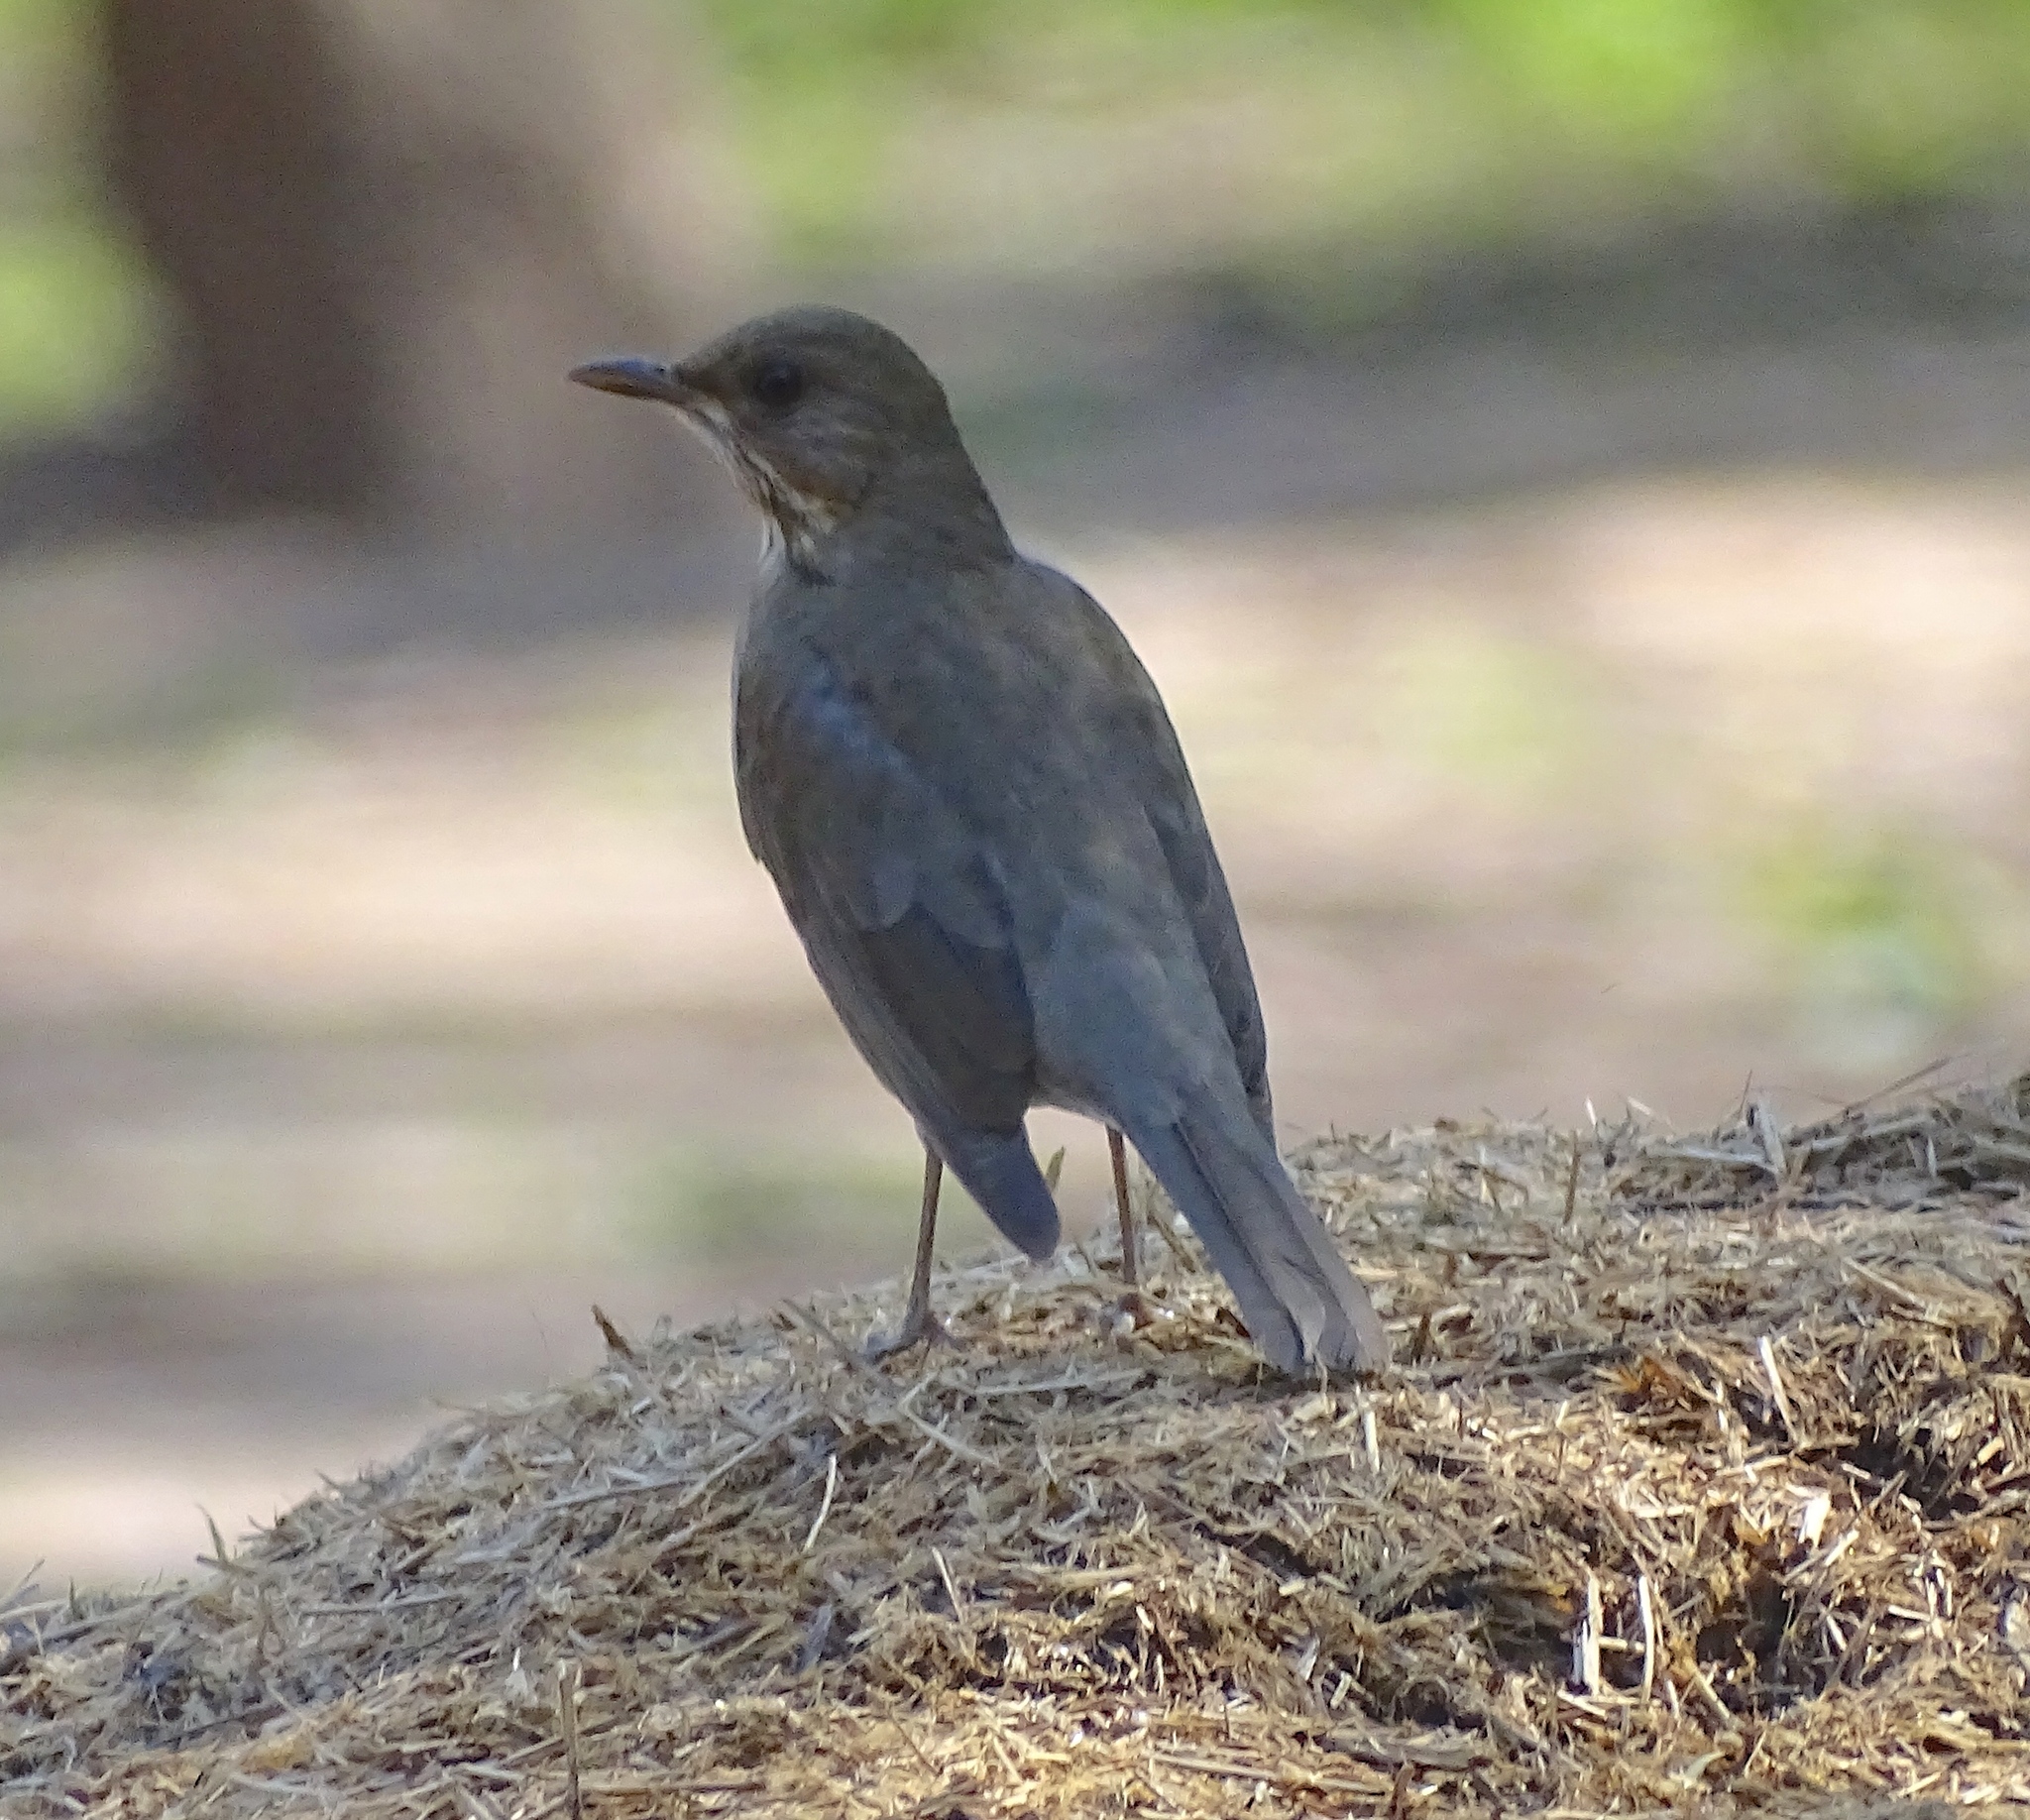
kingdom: Animalia
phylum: Chordata
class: Aves
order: Passeriformes
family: Turdidae
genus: Turdus
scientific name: Turdus amaurochalinus
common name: Creamy-bellied thrush
